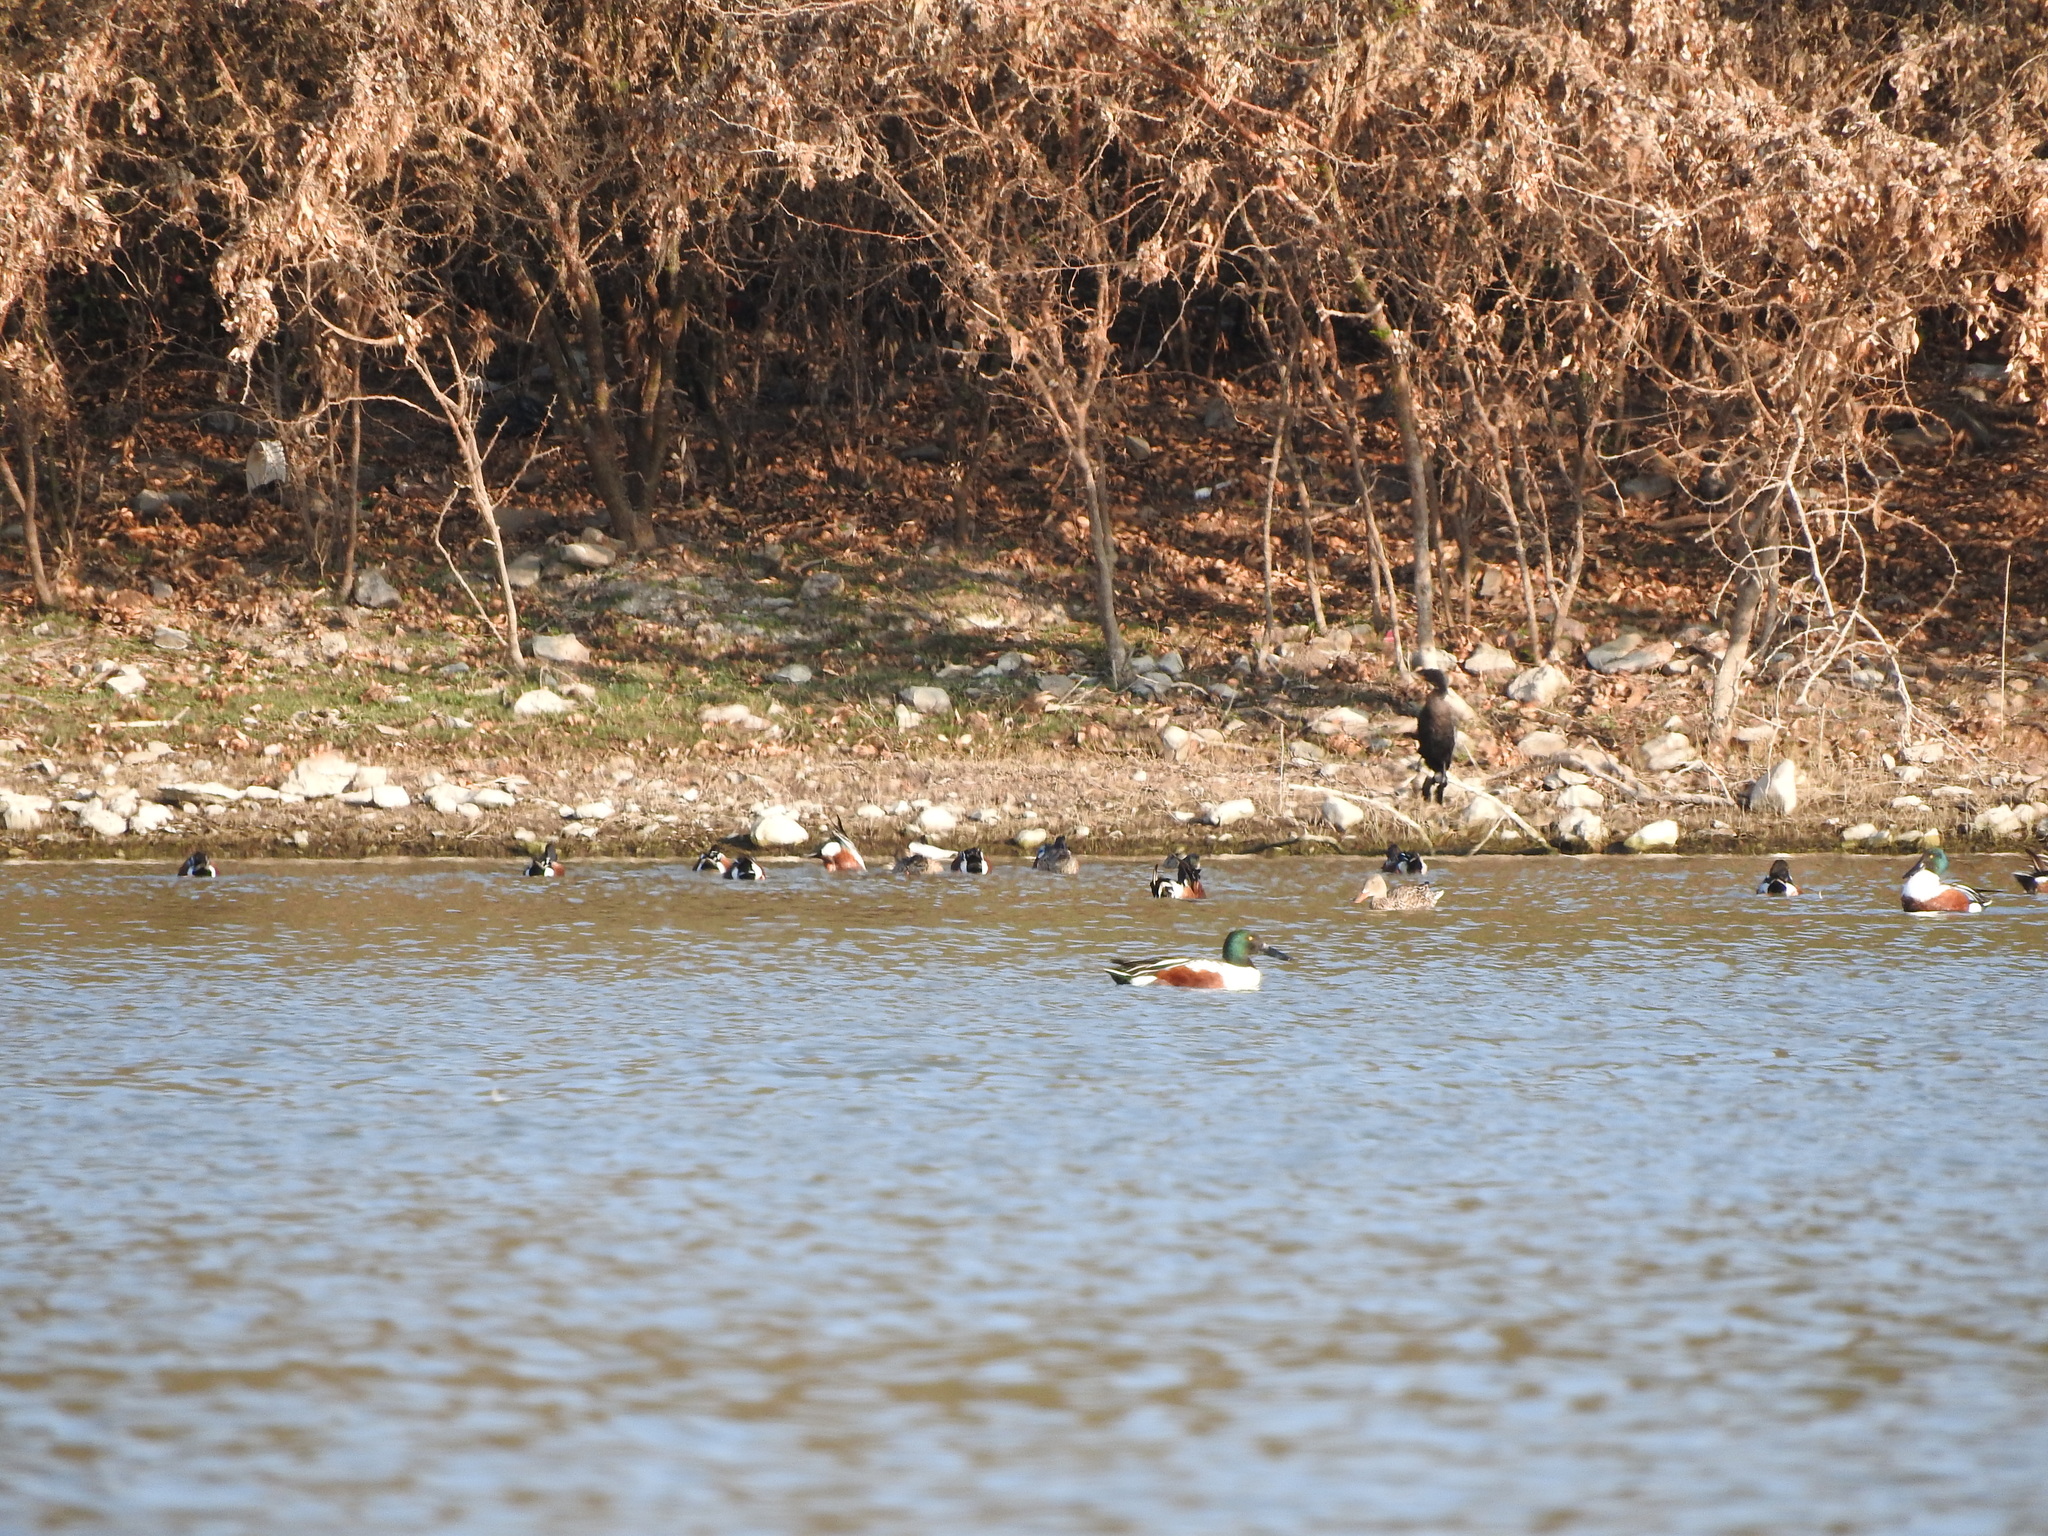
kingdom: Animalia
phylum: Chordata
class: Aves
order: Anseriformes
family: Anatidae
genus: Spatula
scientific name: Spatula clypeata
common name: Northern shoveler
